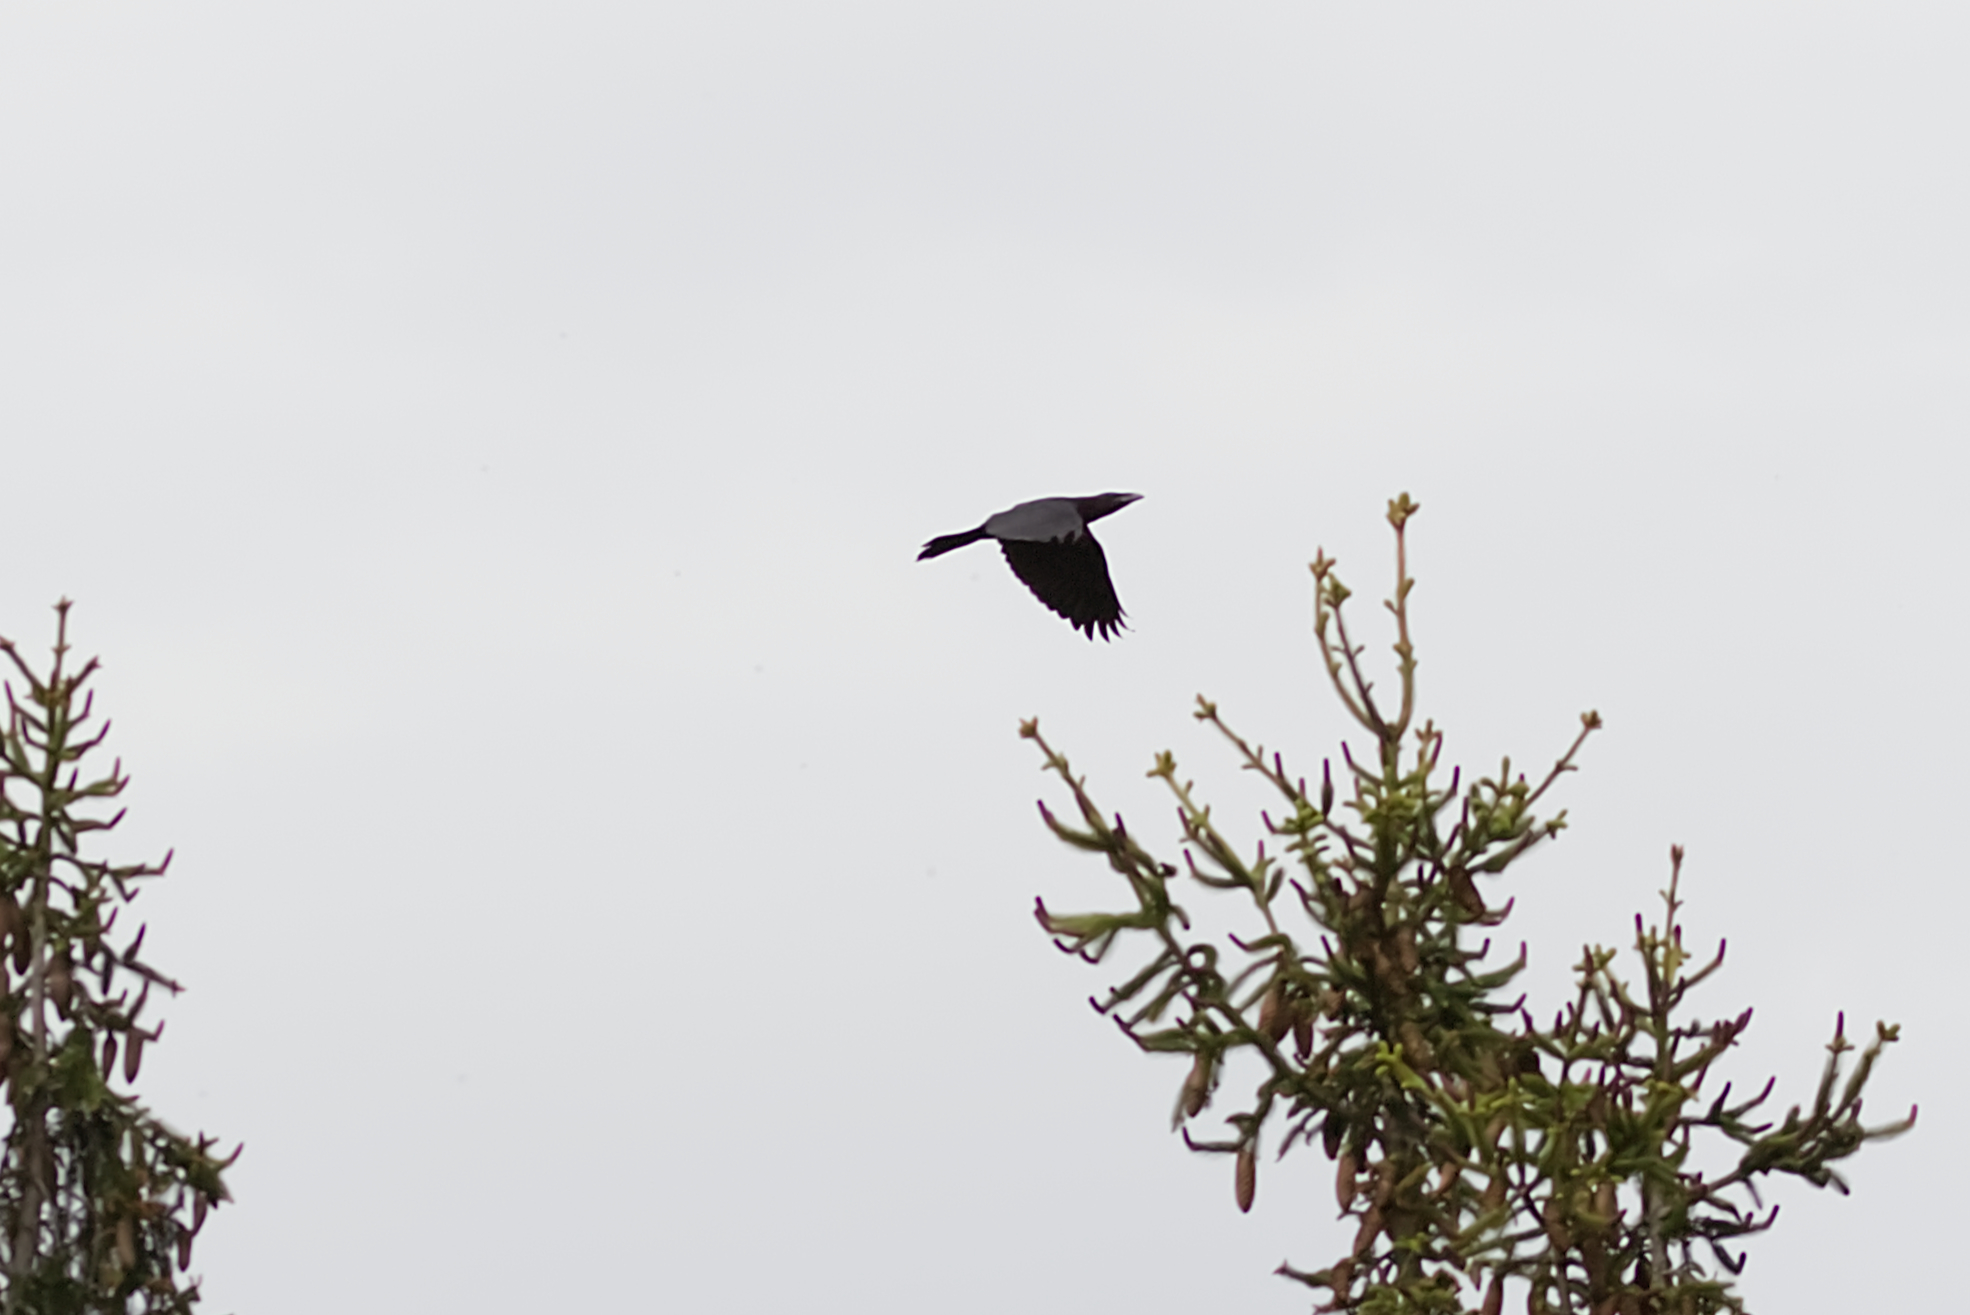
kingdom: Animalia
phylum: Chordata
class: Aves
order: Passeriformes
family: Corvidae
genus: Corvus
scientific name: Corvus corax
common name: Common raven
